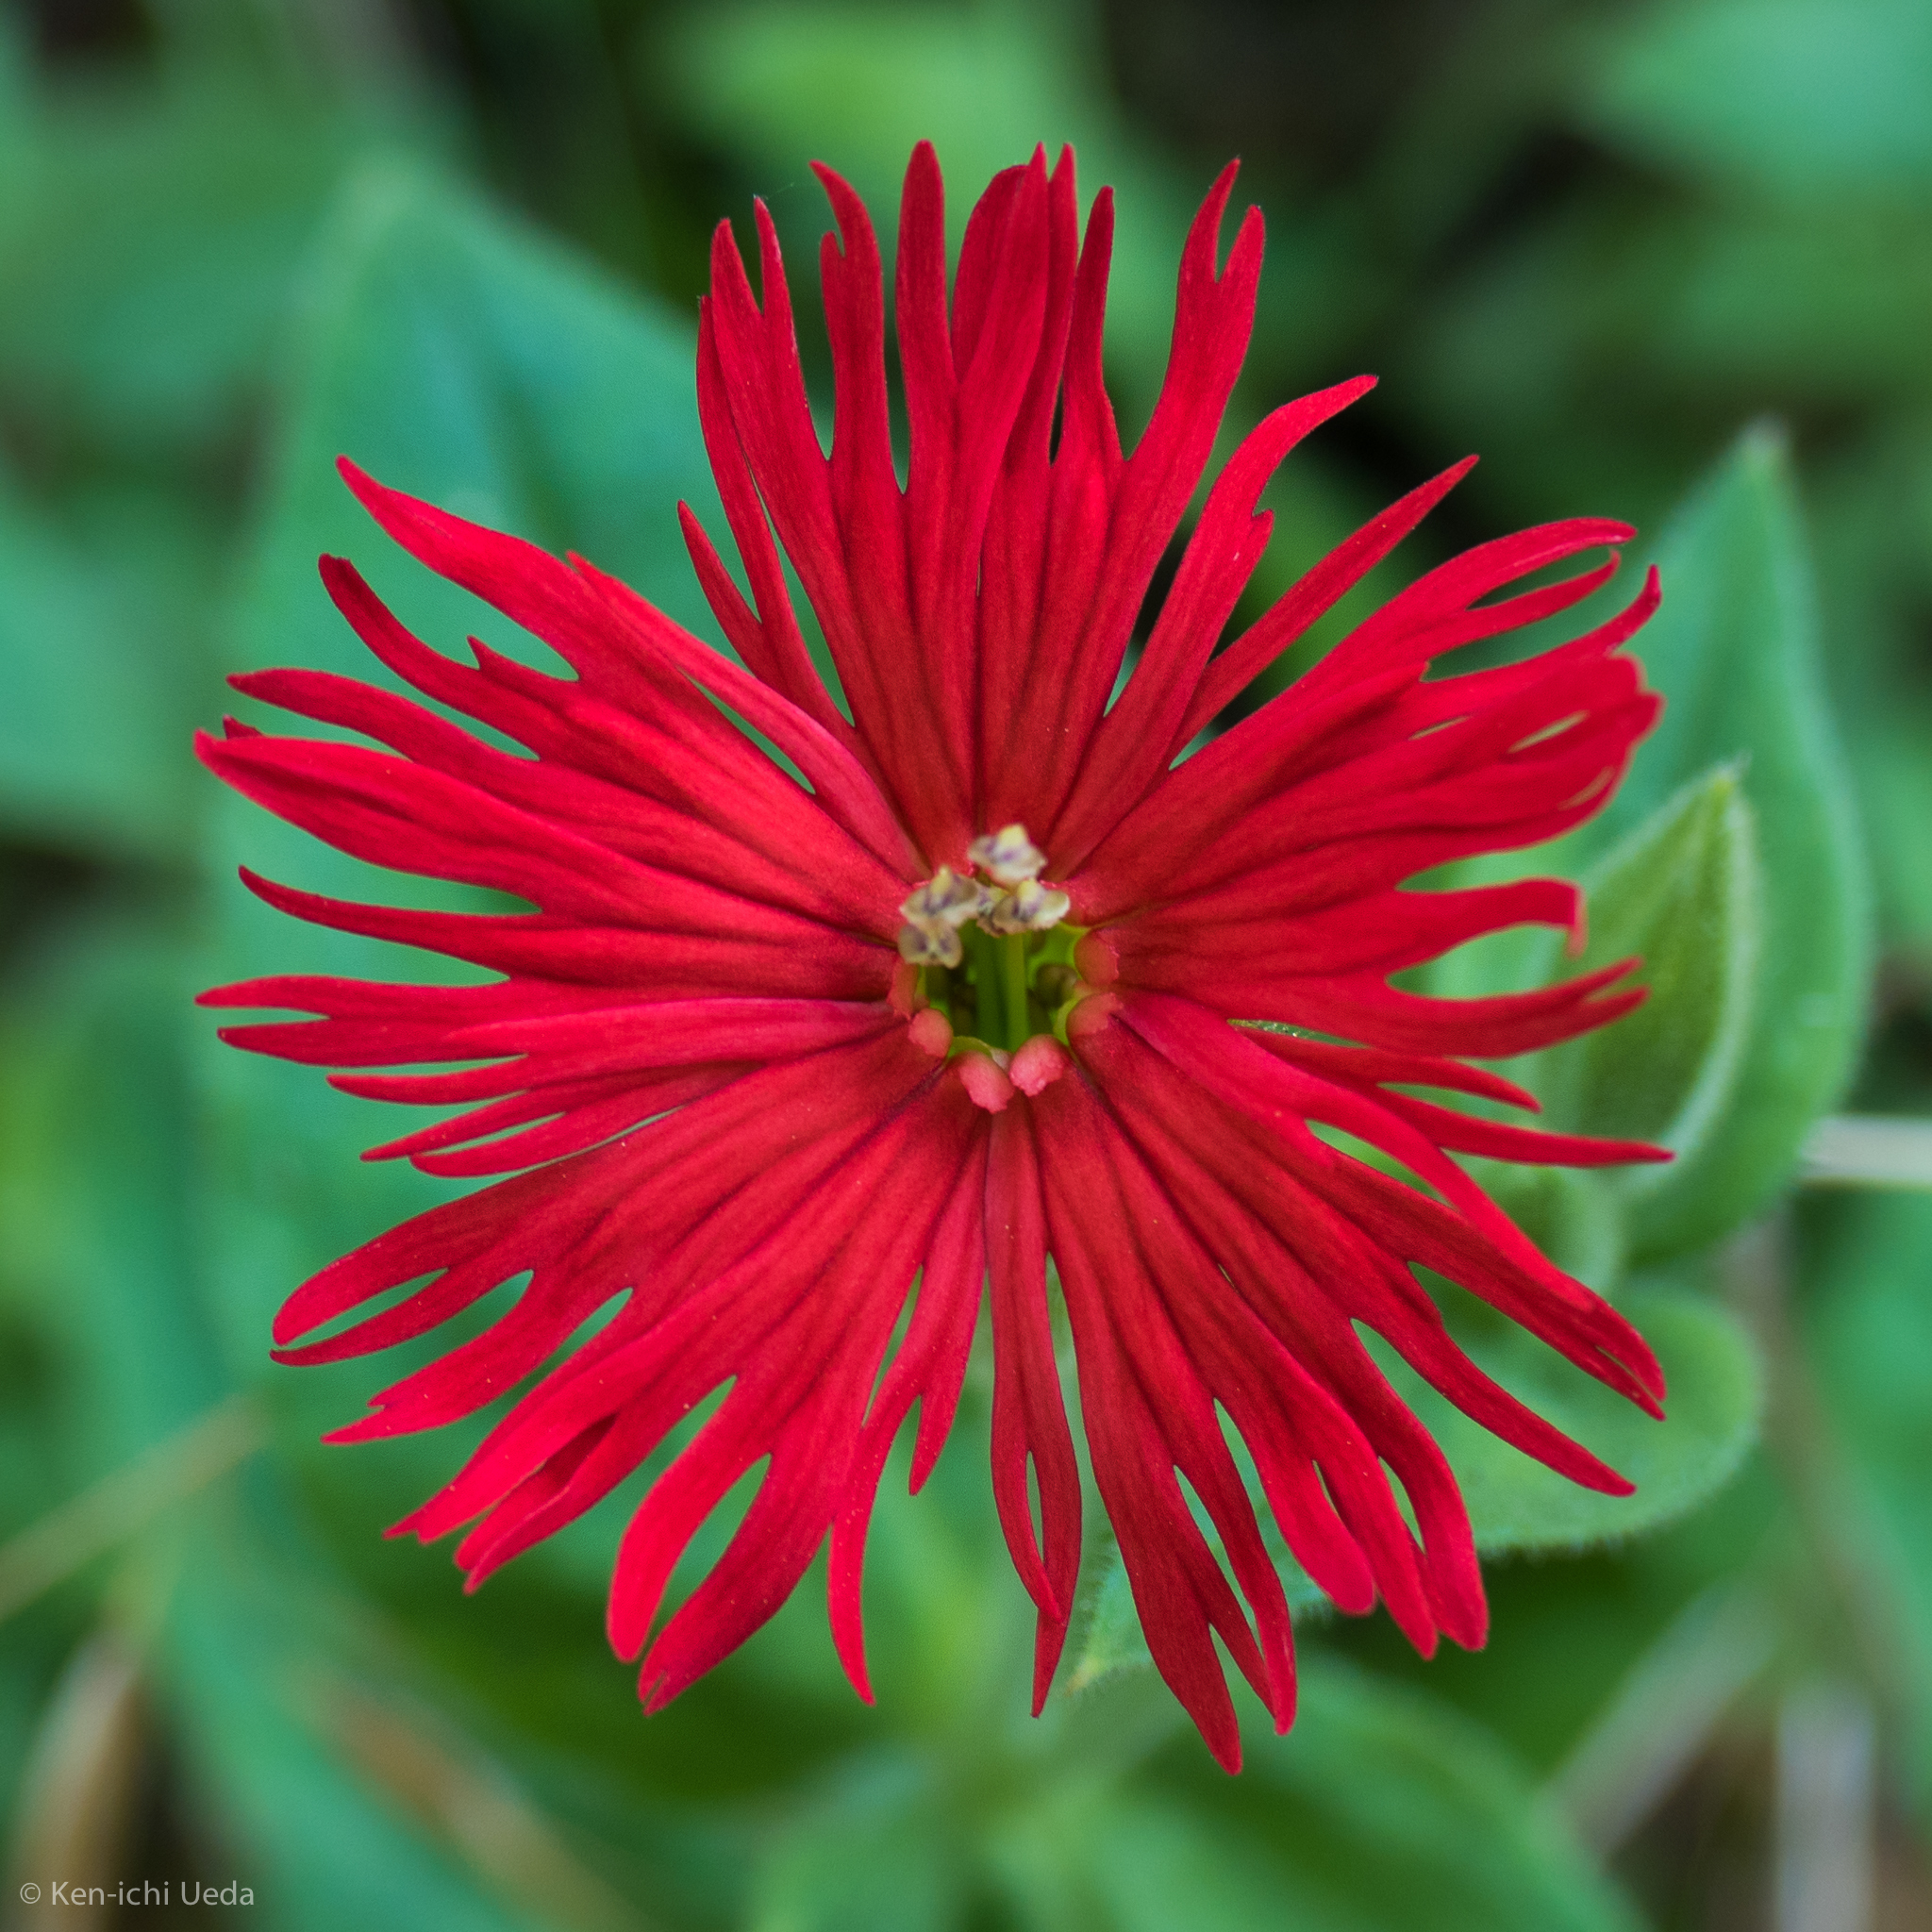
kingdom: Plantae
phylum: Tracheophyta
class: Magnoliopsida
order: Caryophyllales
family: Caryophyllaceae
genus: Silene
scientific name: Silene laciniata
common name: Indian-pink
